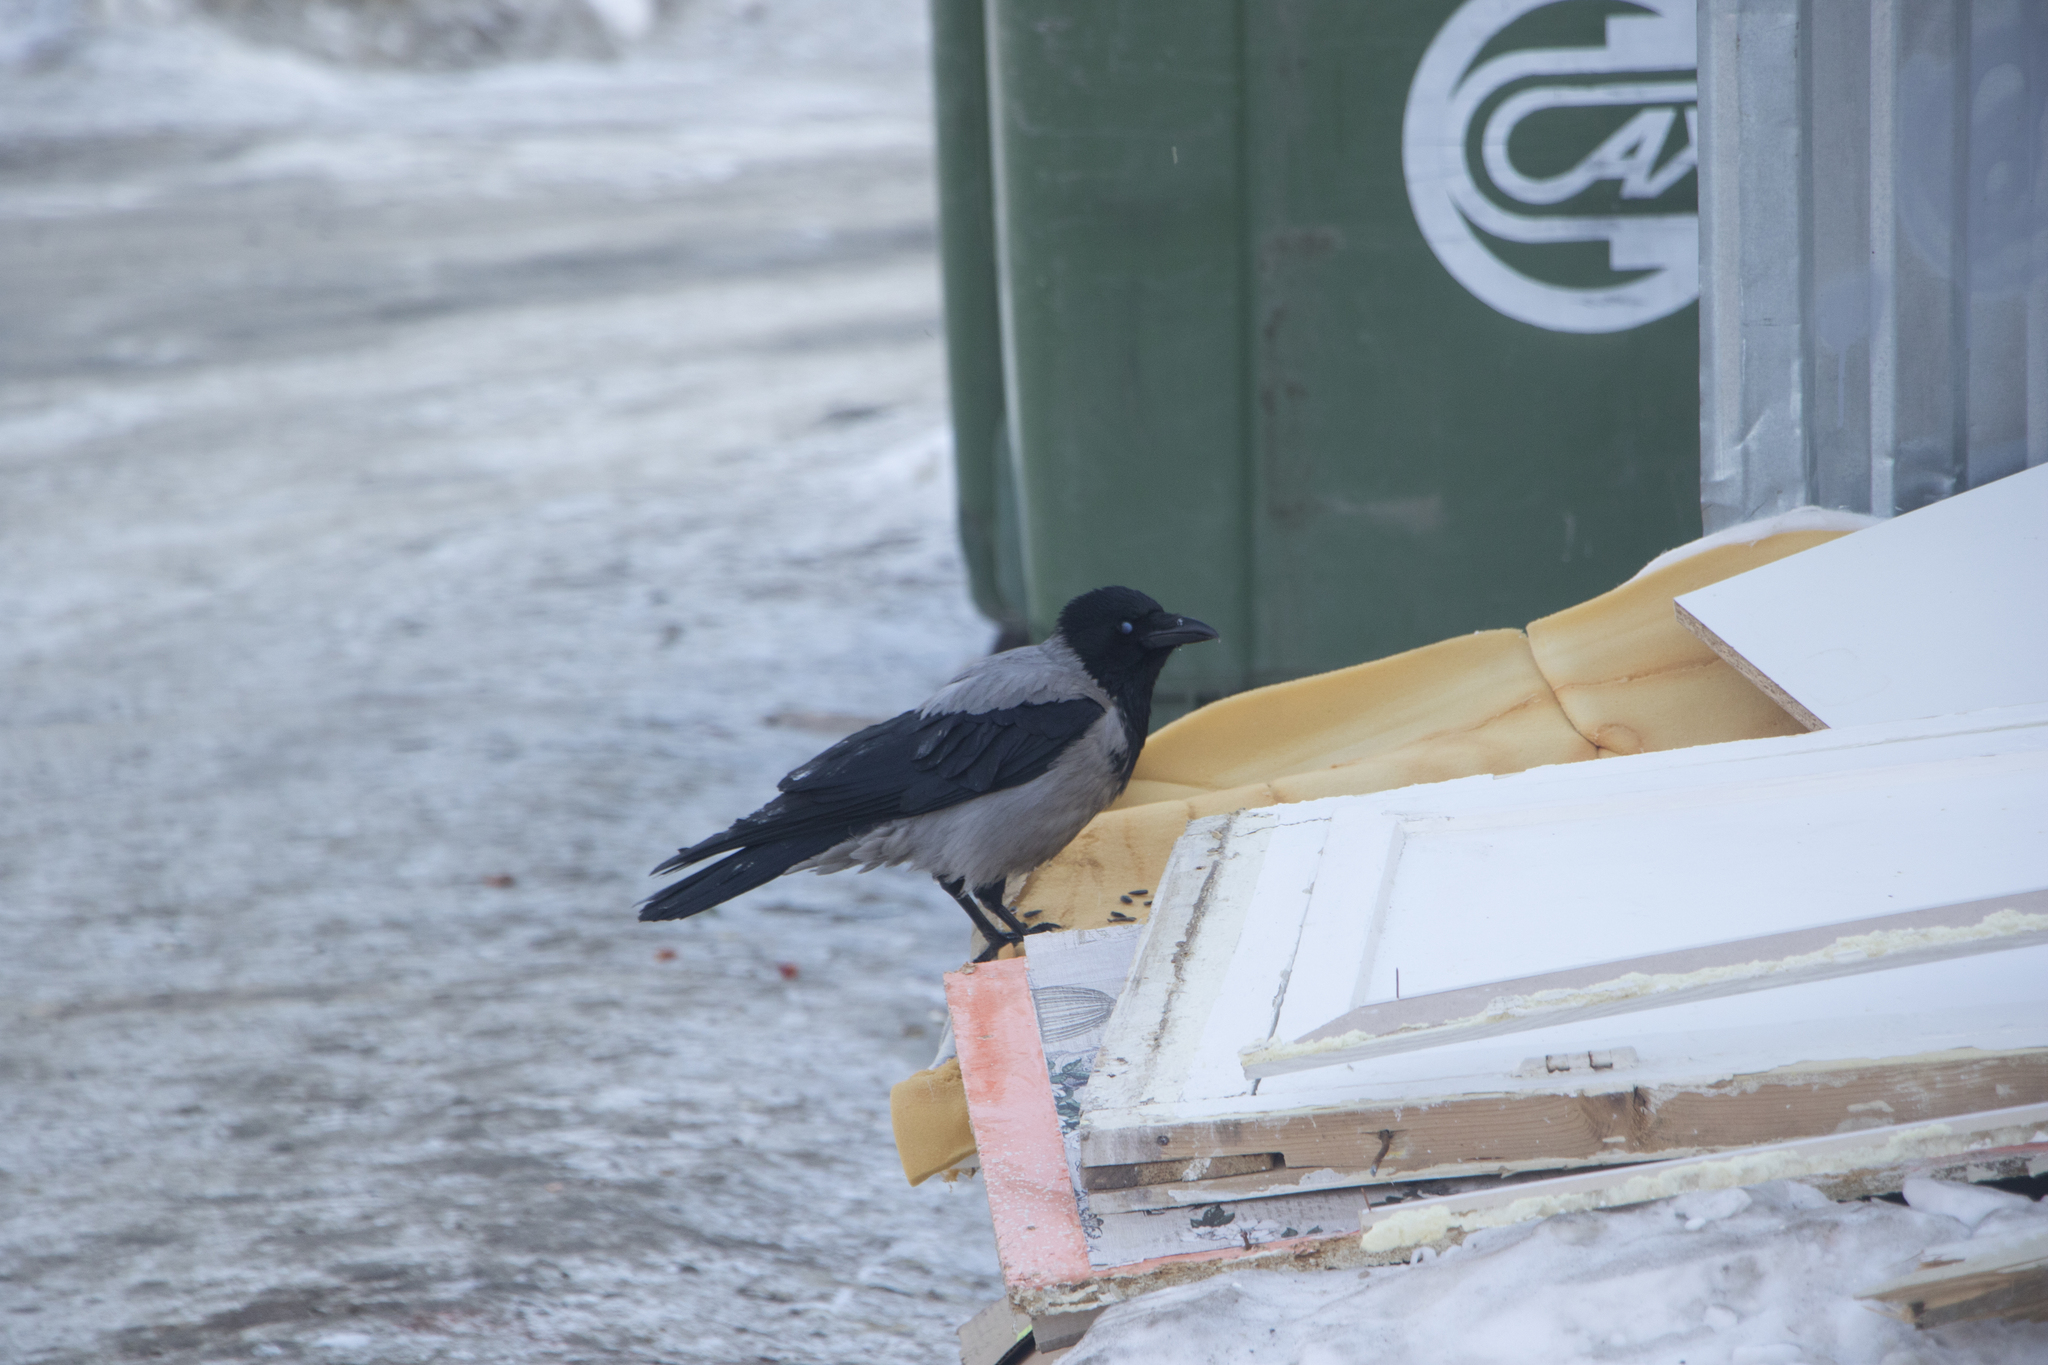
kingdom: Animalia
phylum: Chordata
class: Aves
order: Passeriformes
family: Corvidae
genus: Corvus
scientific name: Corvus cornix
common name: Hooded crow
